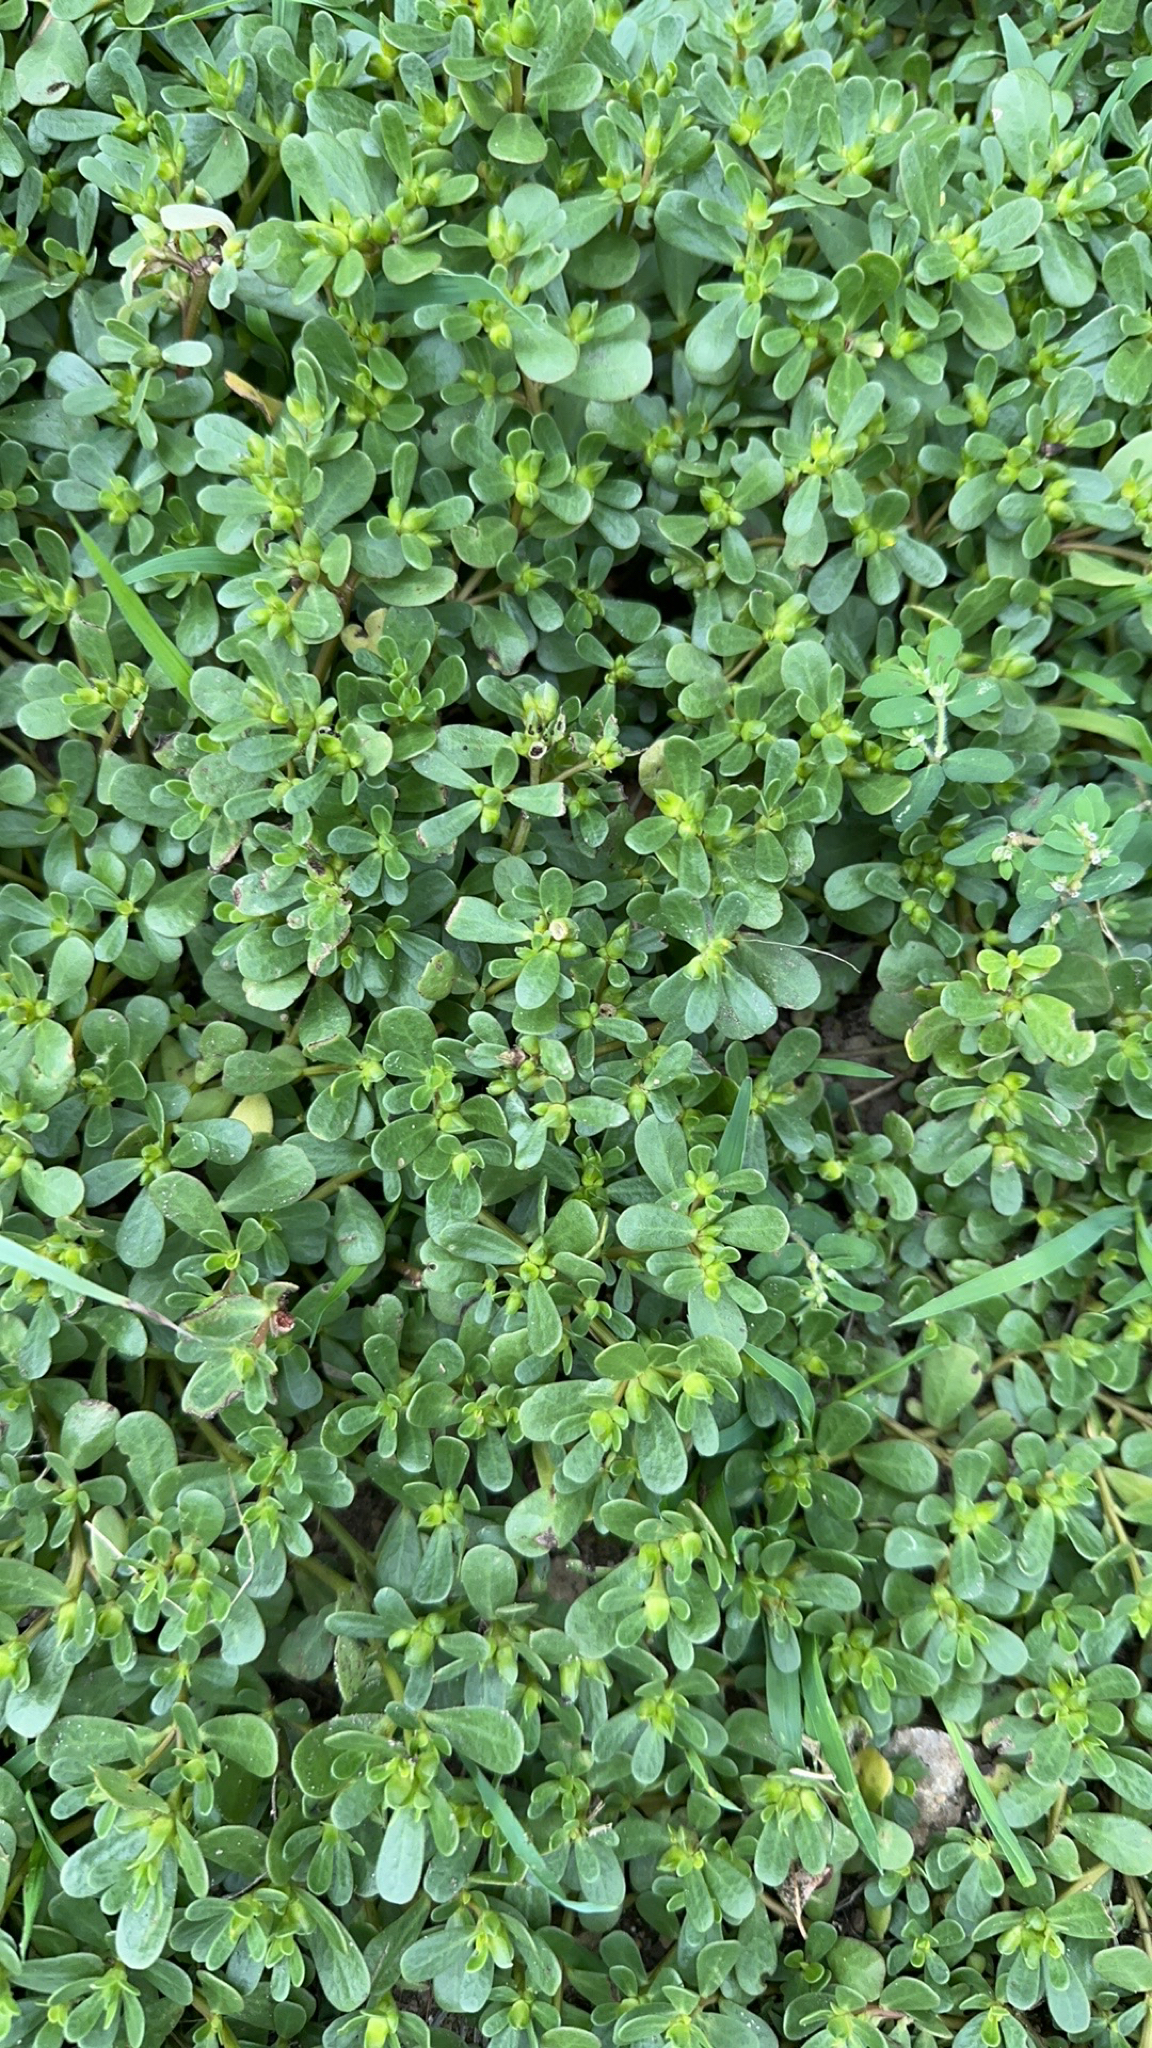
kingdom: Plantae
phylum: Tracheophyta
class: Magnoliopsida
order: Caryophyllales
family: Portulacaceae
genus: Portulaca
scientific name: Portulaca oleracea
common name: Common purslane
